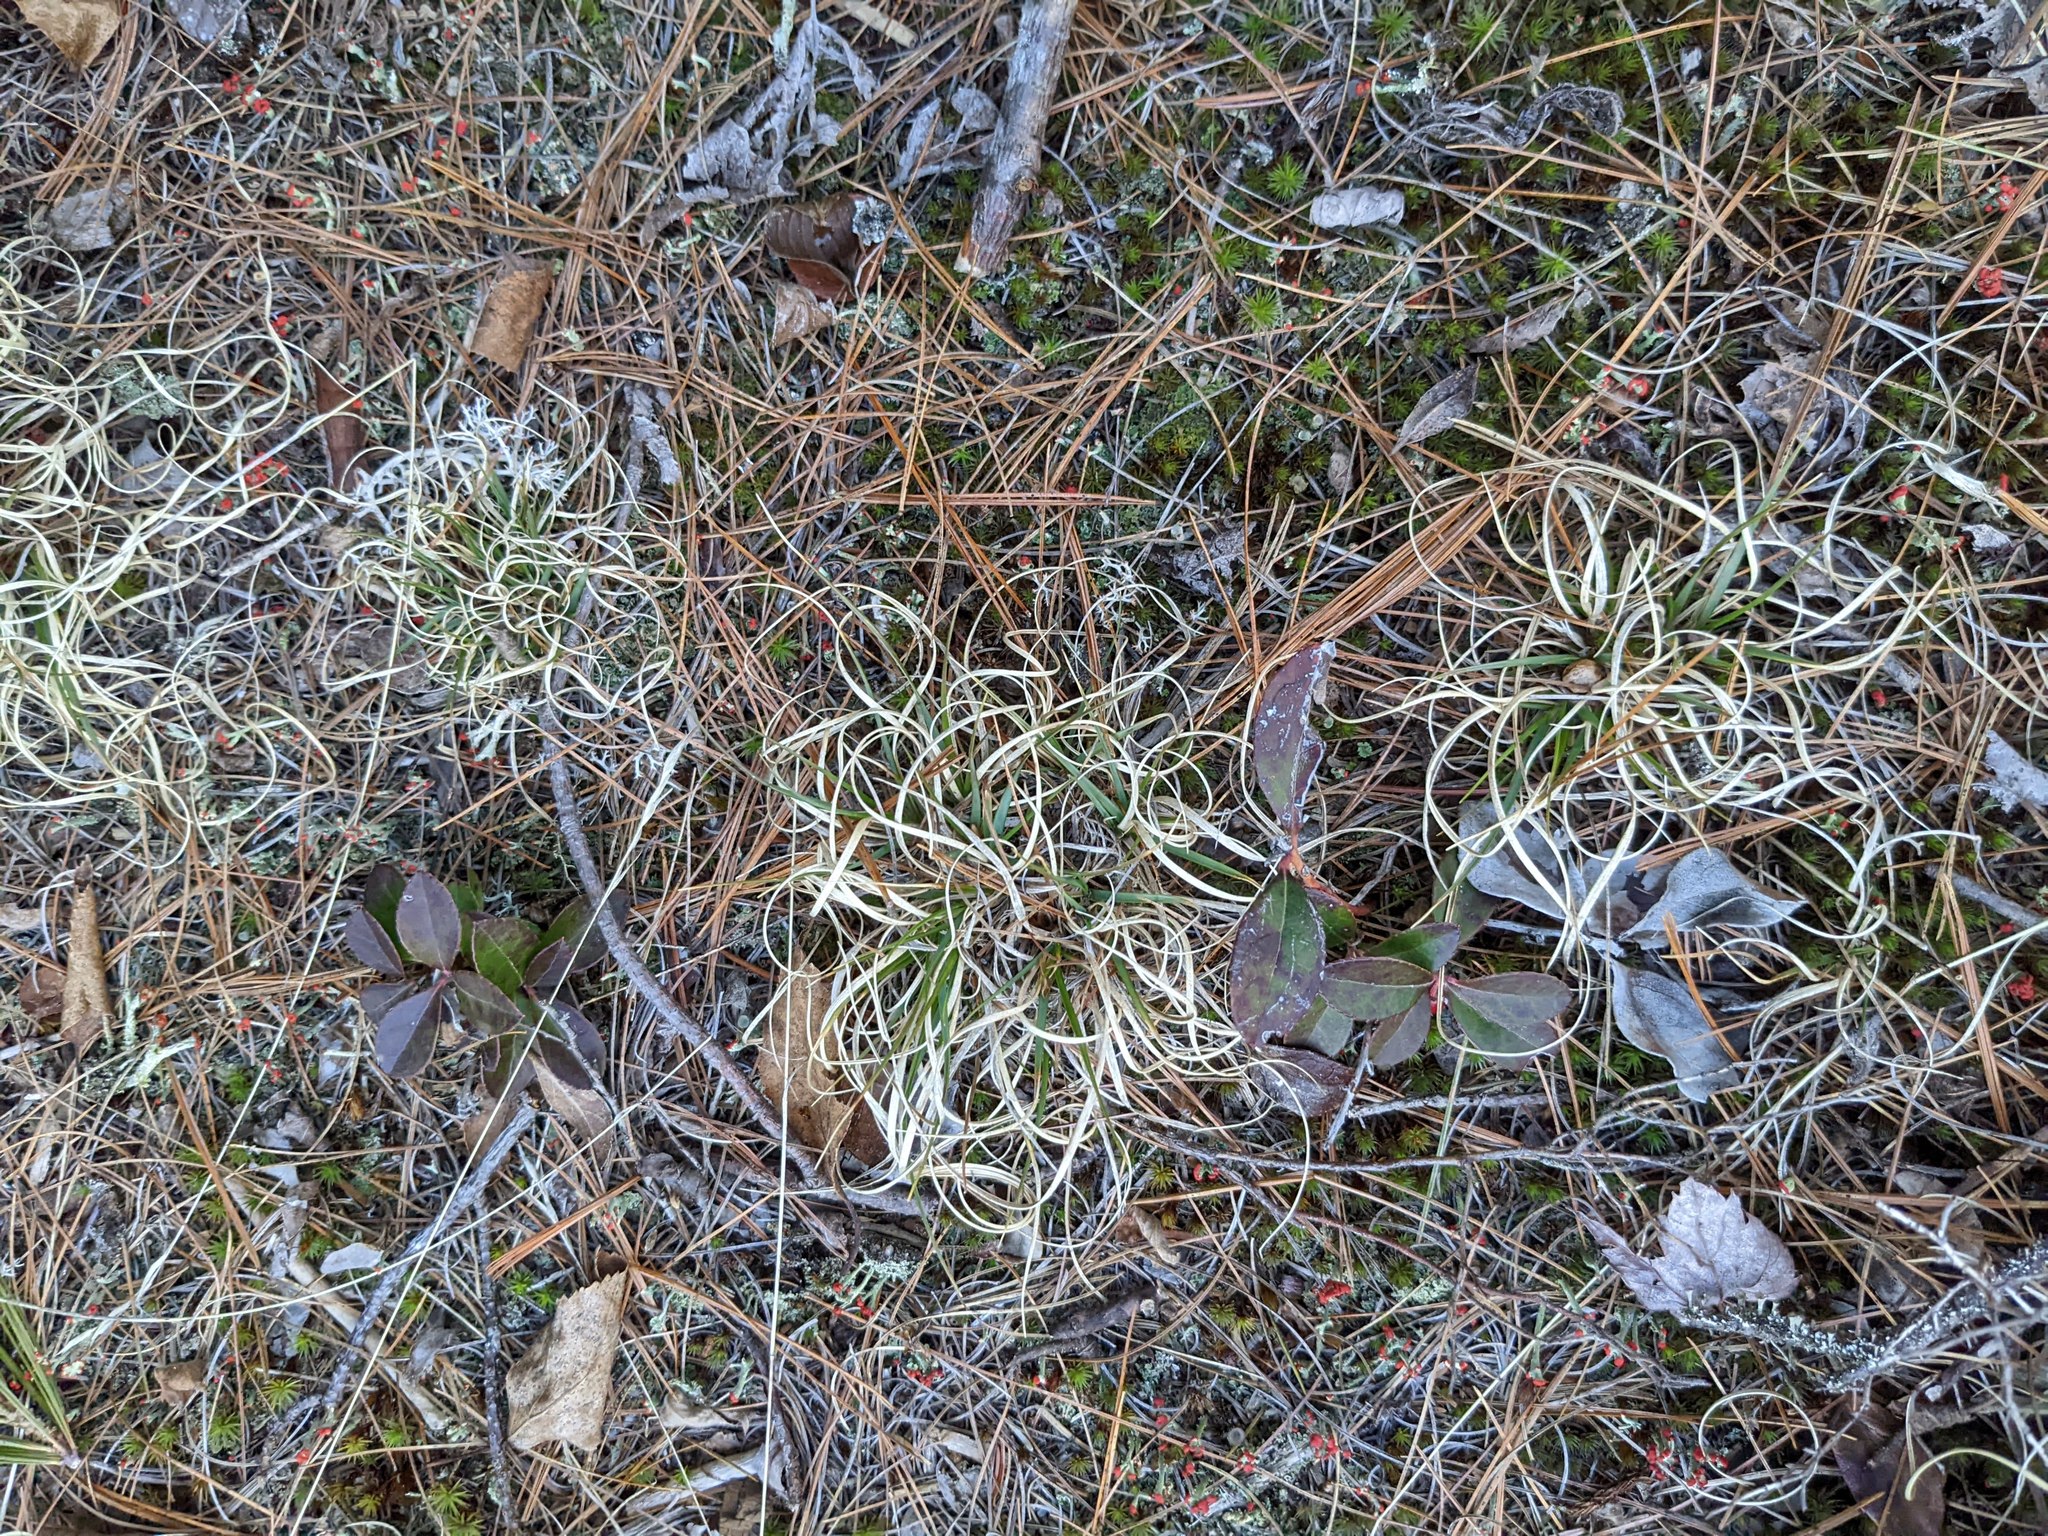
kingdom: Plantae
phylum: Tracheophyta
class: Magnoliopsida
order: Ericales
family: Ericaceae
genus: Gaultheria
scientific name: Gaultheria procumbens
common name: Checkerberry
